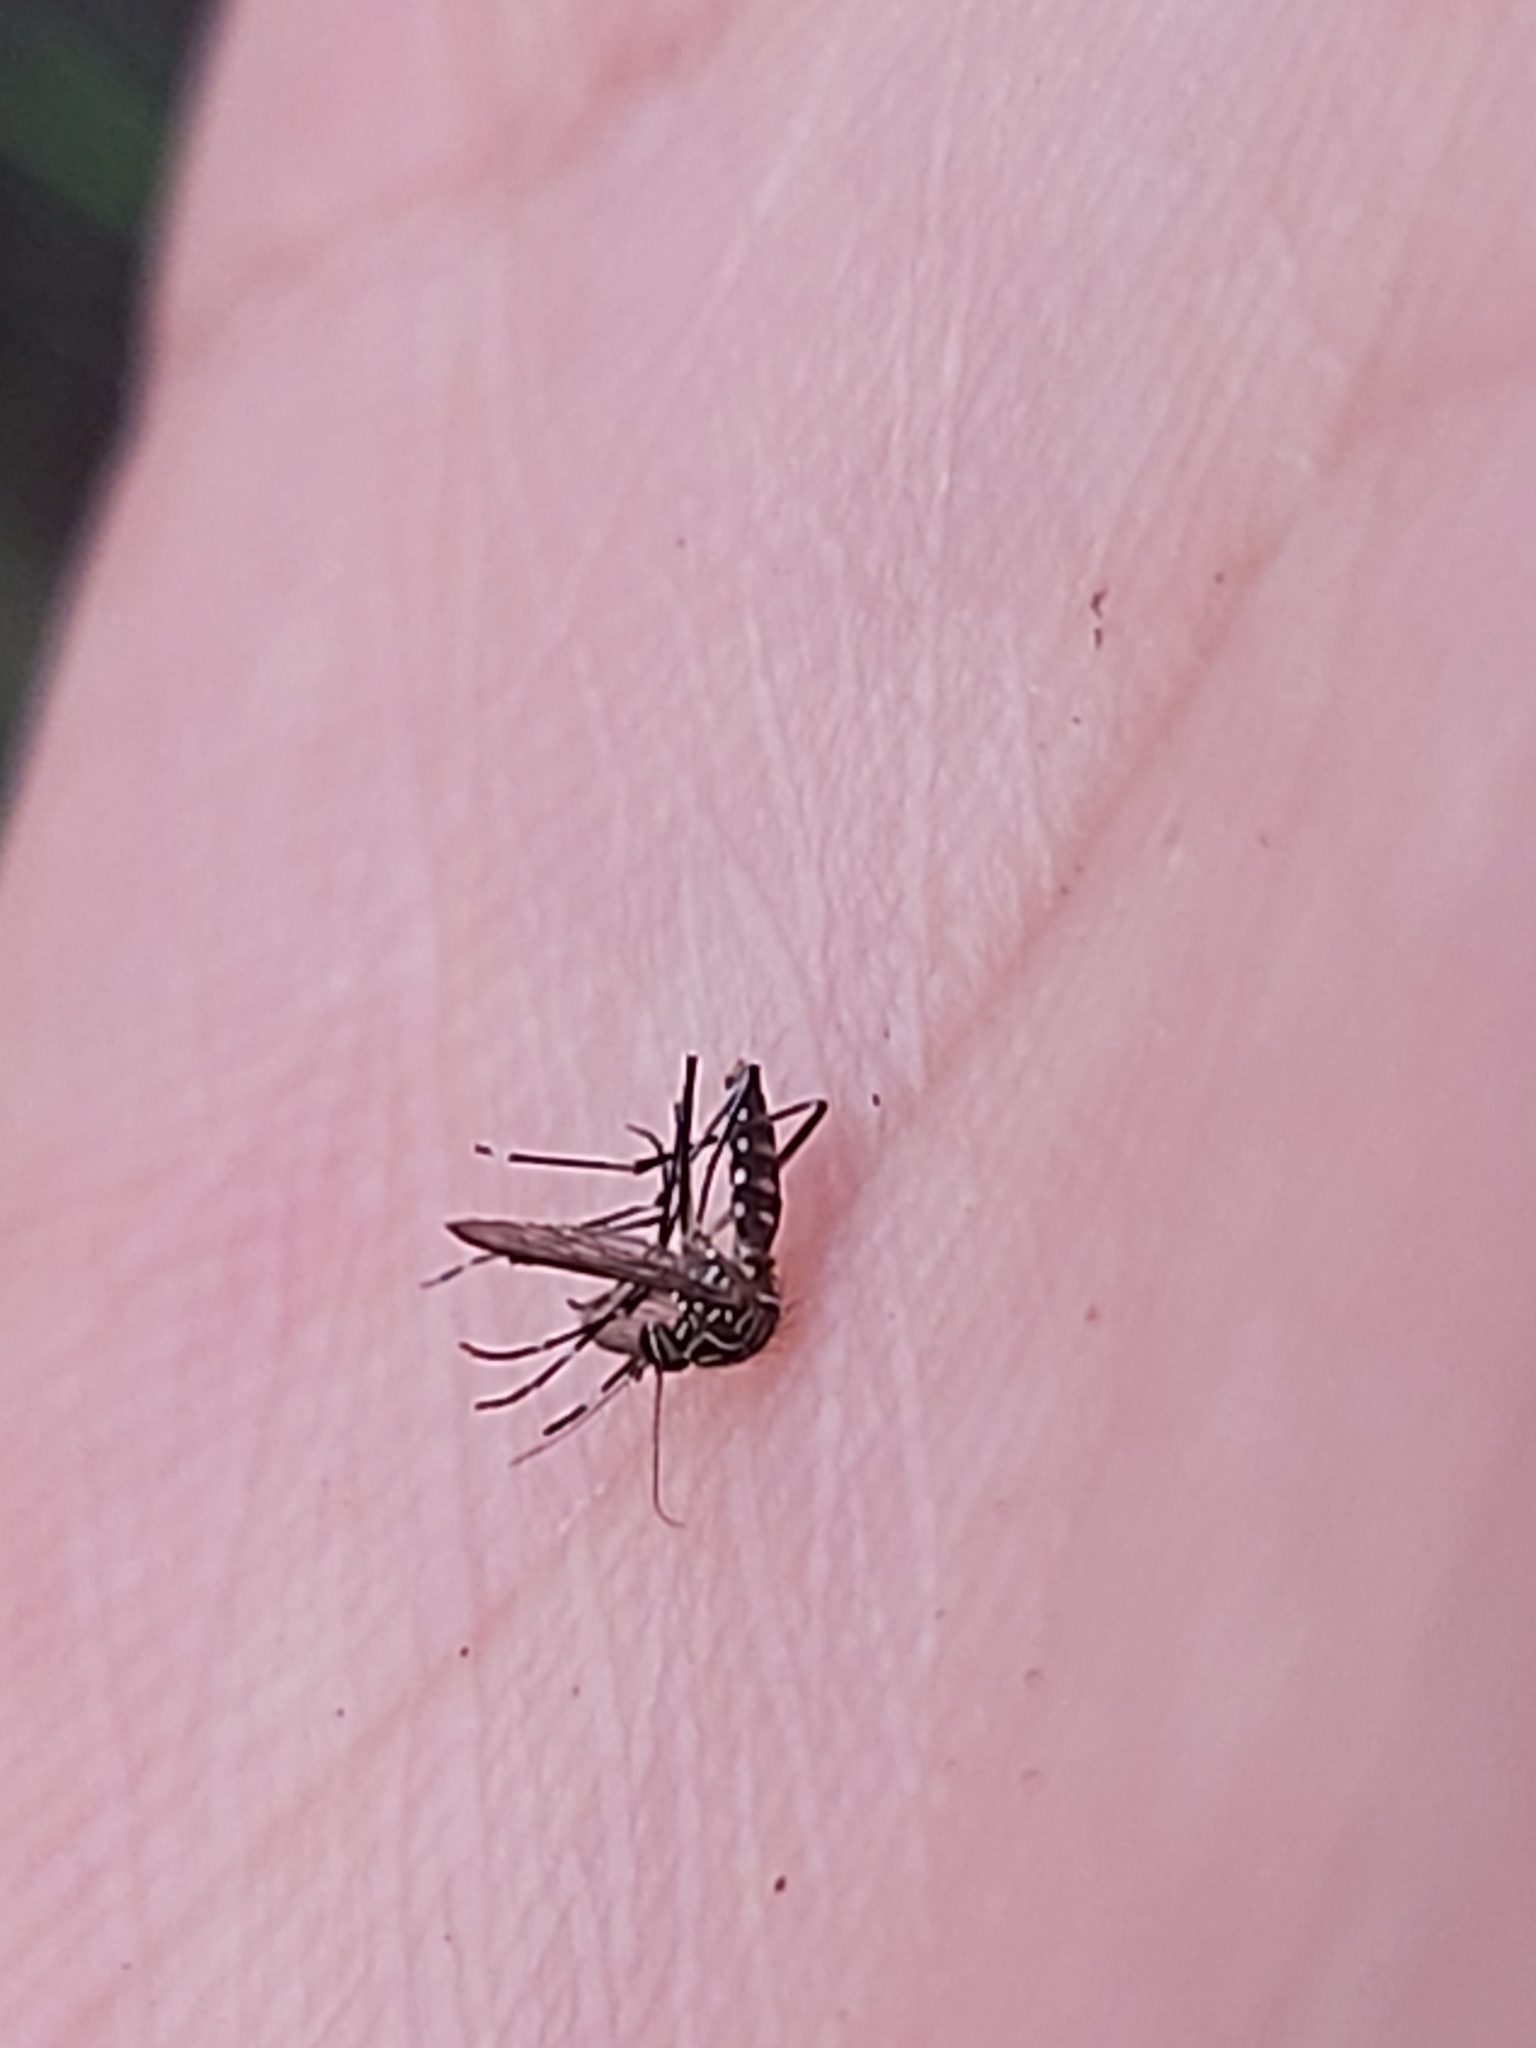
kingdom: Animalia
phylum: Arthropoda
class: Insecta
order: Diptera
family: Culicidae
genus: Aedes
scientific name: Aedes notoscriptus
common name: Australian backyard mosquito
